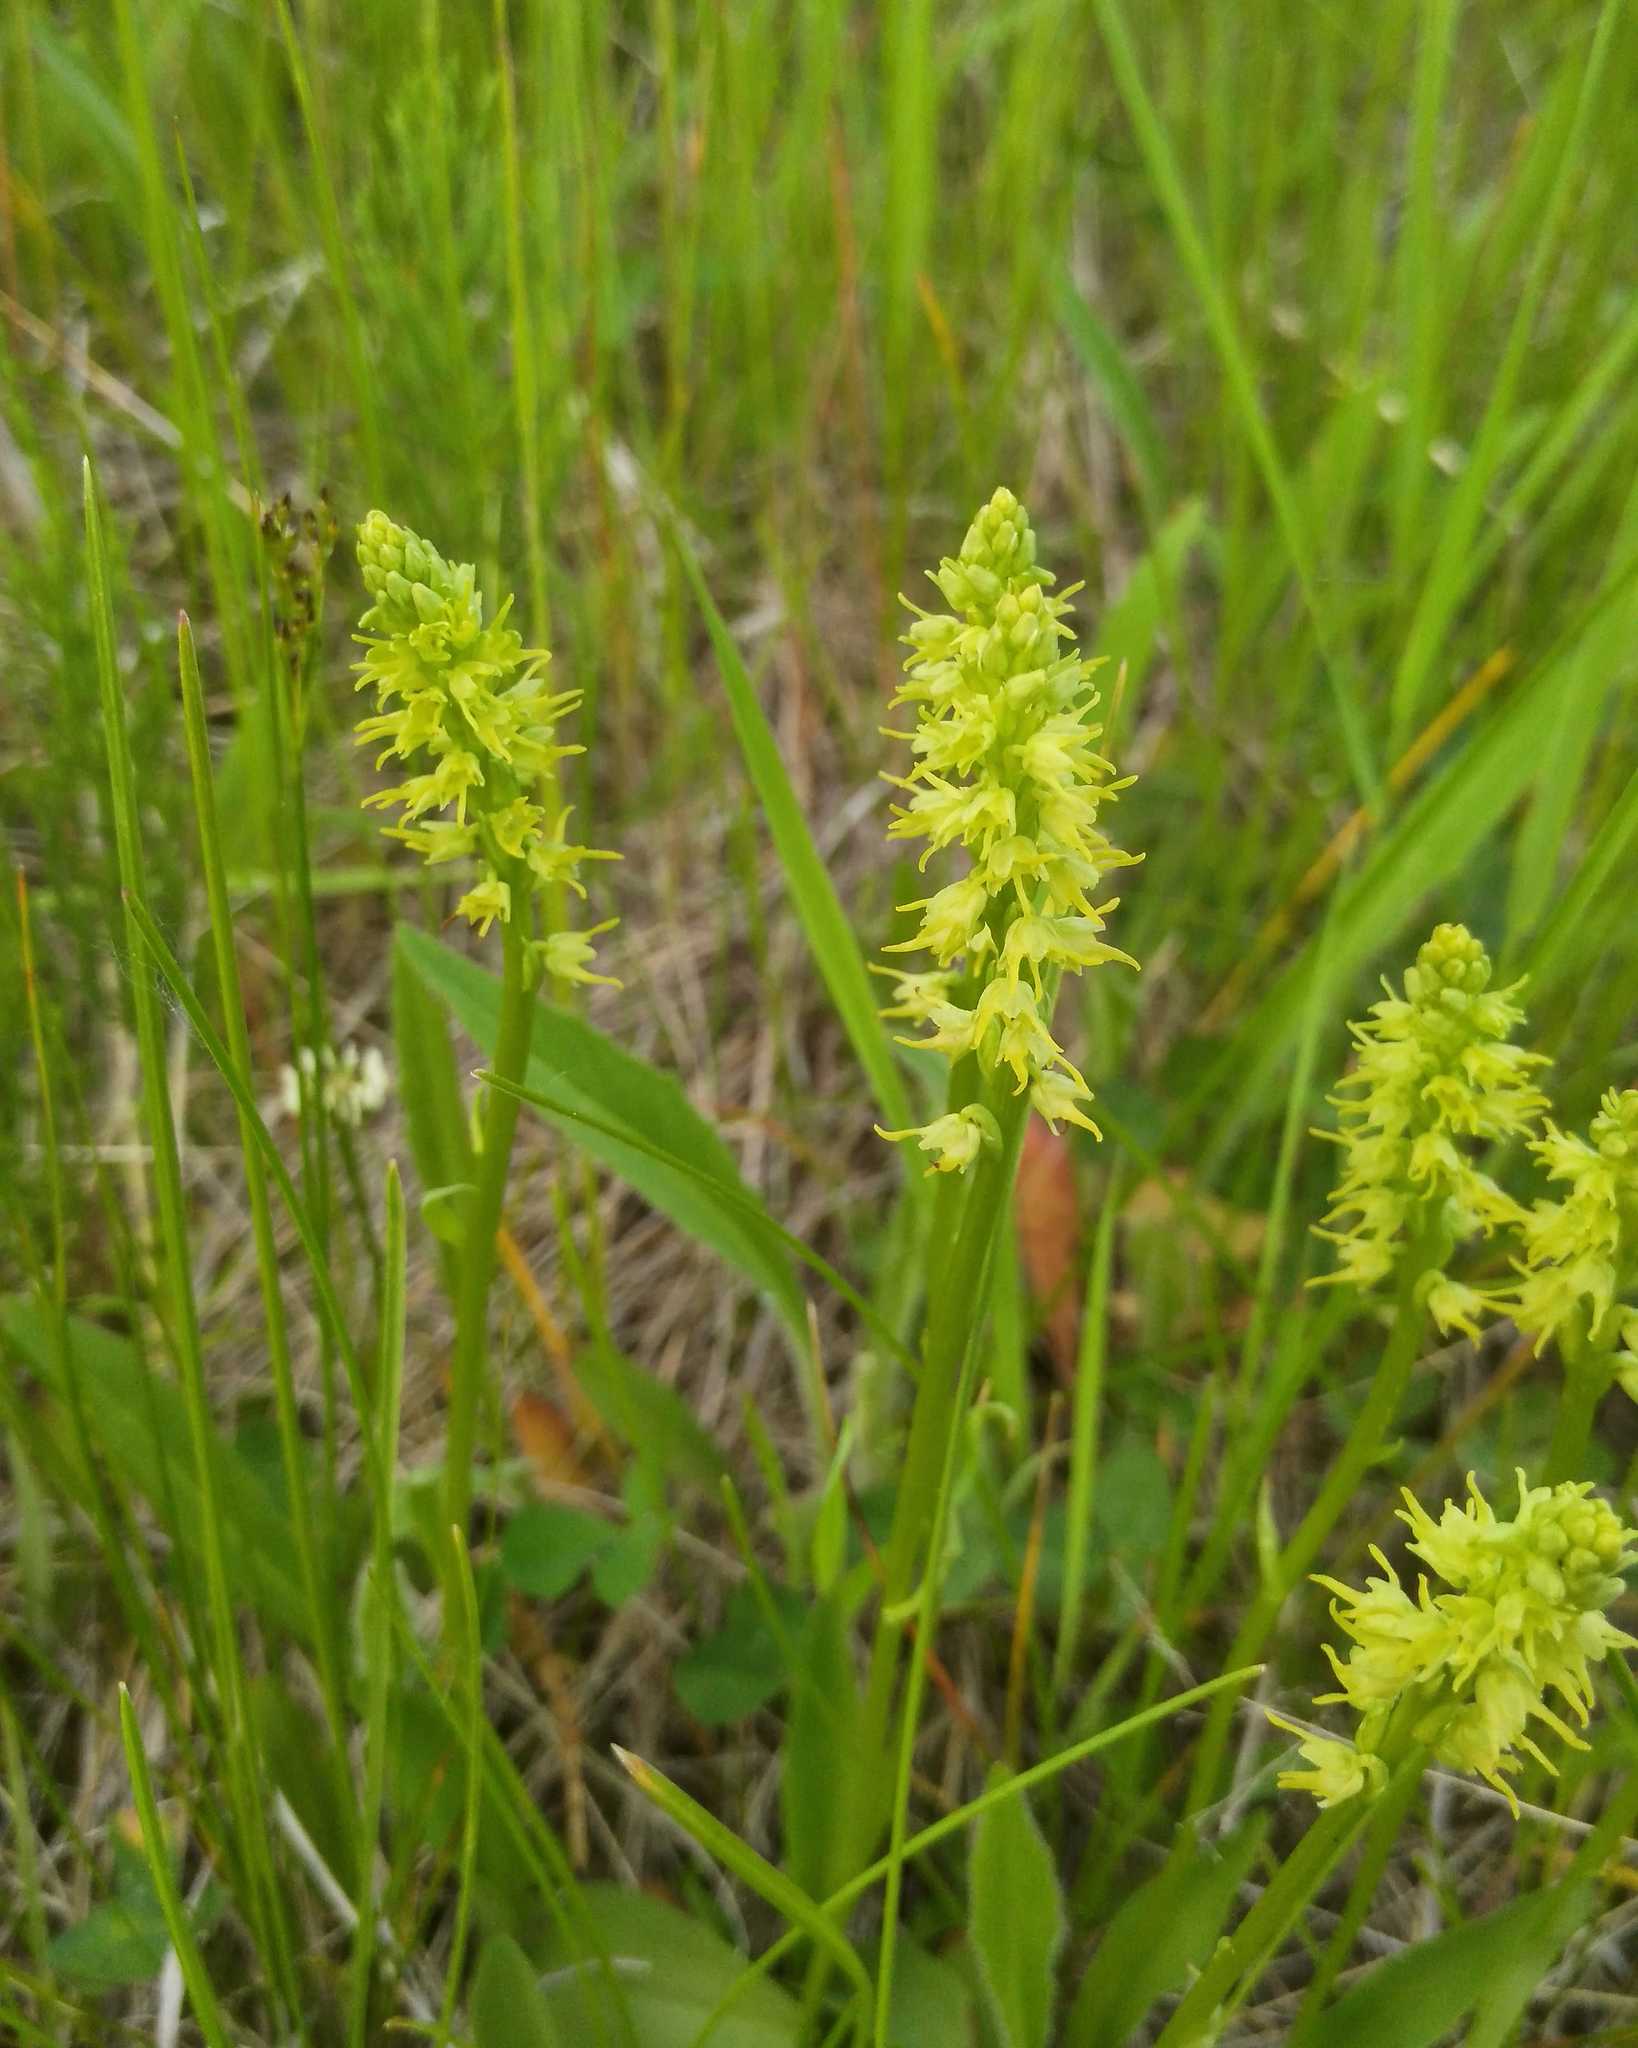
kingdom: Plantae
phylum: Tracheophyta
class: Liliopsida
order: Asparagales
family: Orchidaceae
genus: Herminium
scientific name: Herminium monorchis
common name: Musk orchid
